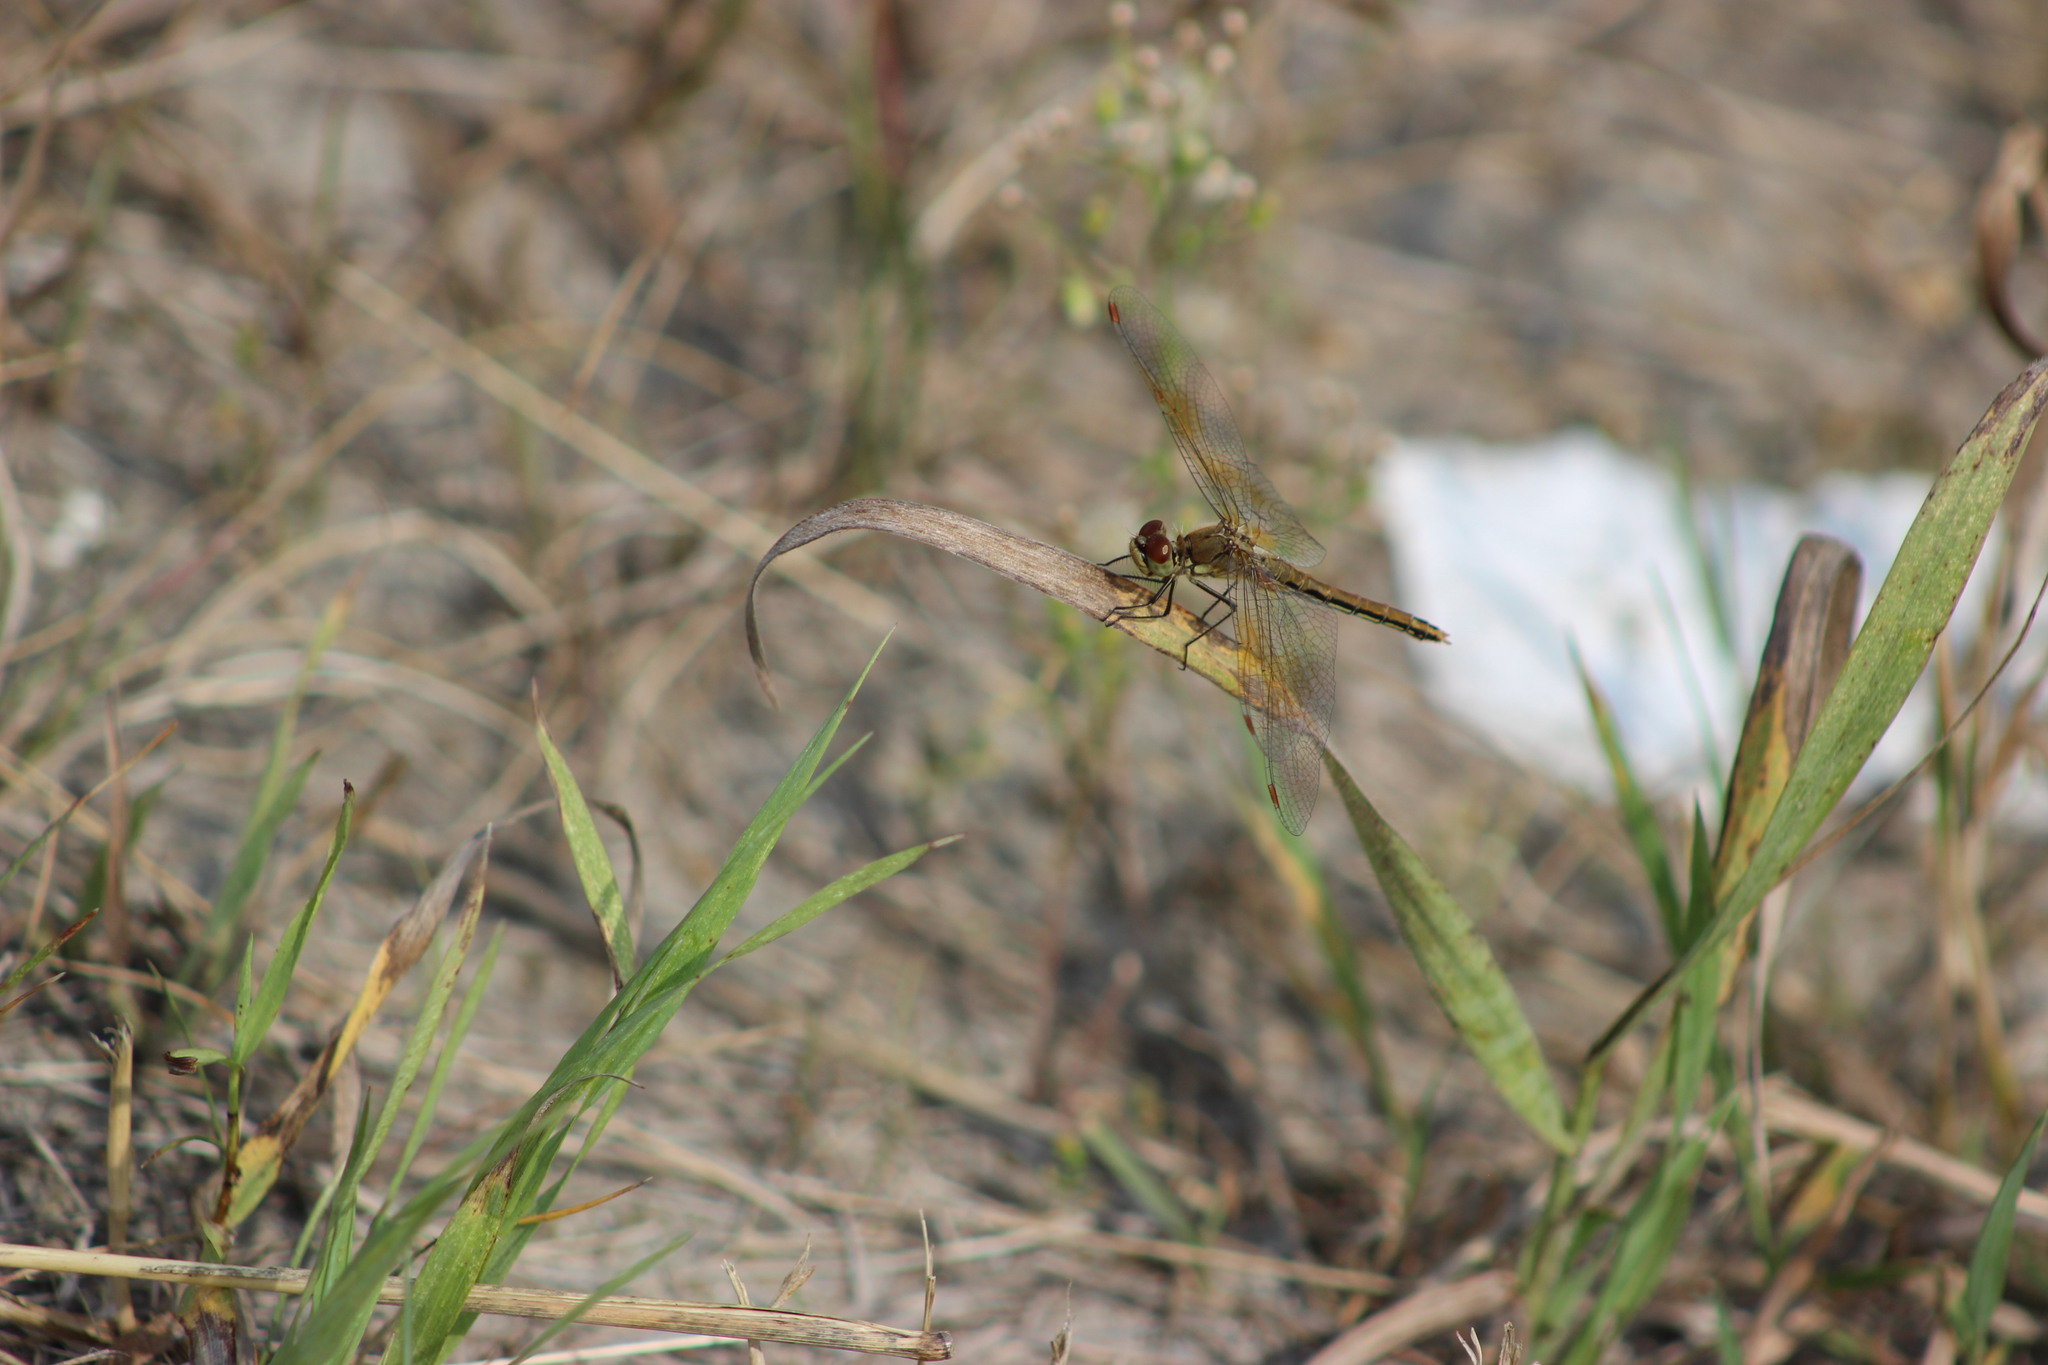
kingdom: Animalia
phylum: Arthropoda
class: Insecta
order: Odonata
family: Libellulidae
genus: Sympetrum
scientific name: Sympetrum flaveolum
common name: Yellow-winged darter
